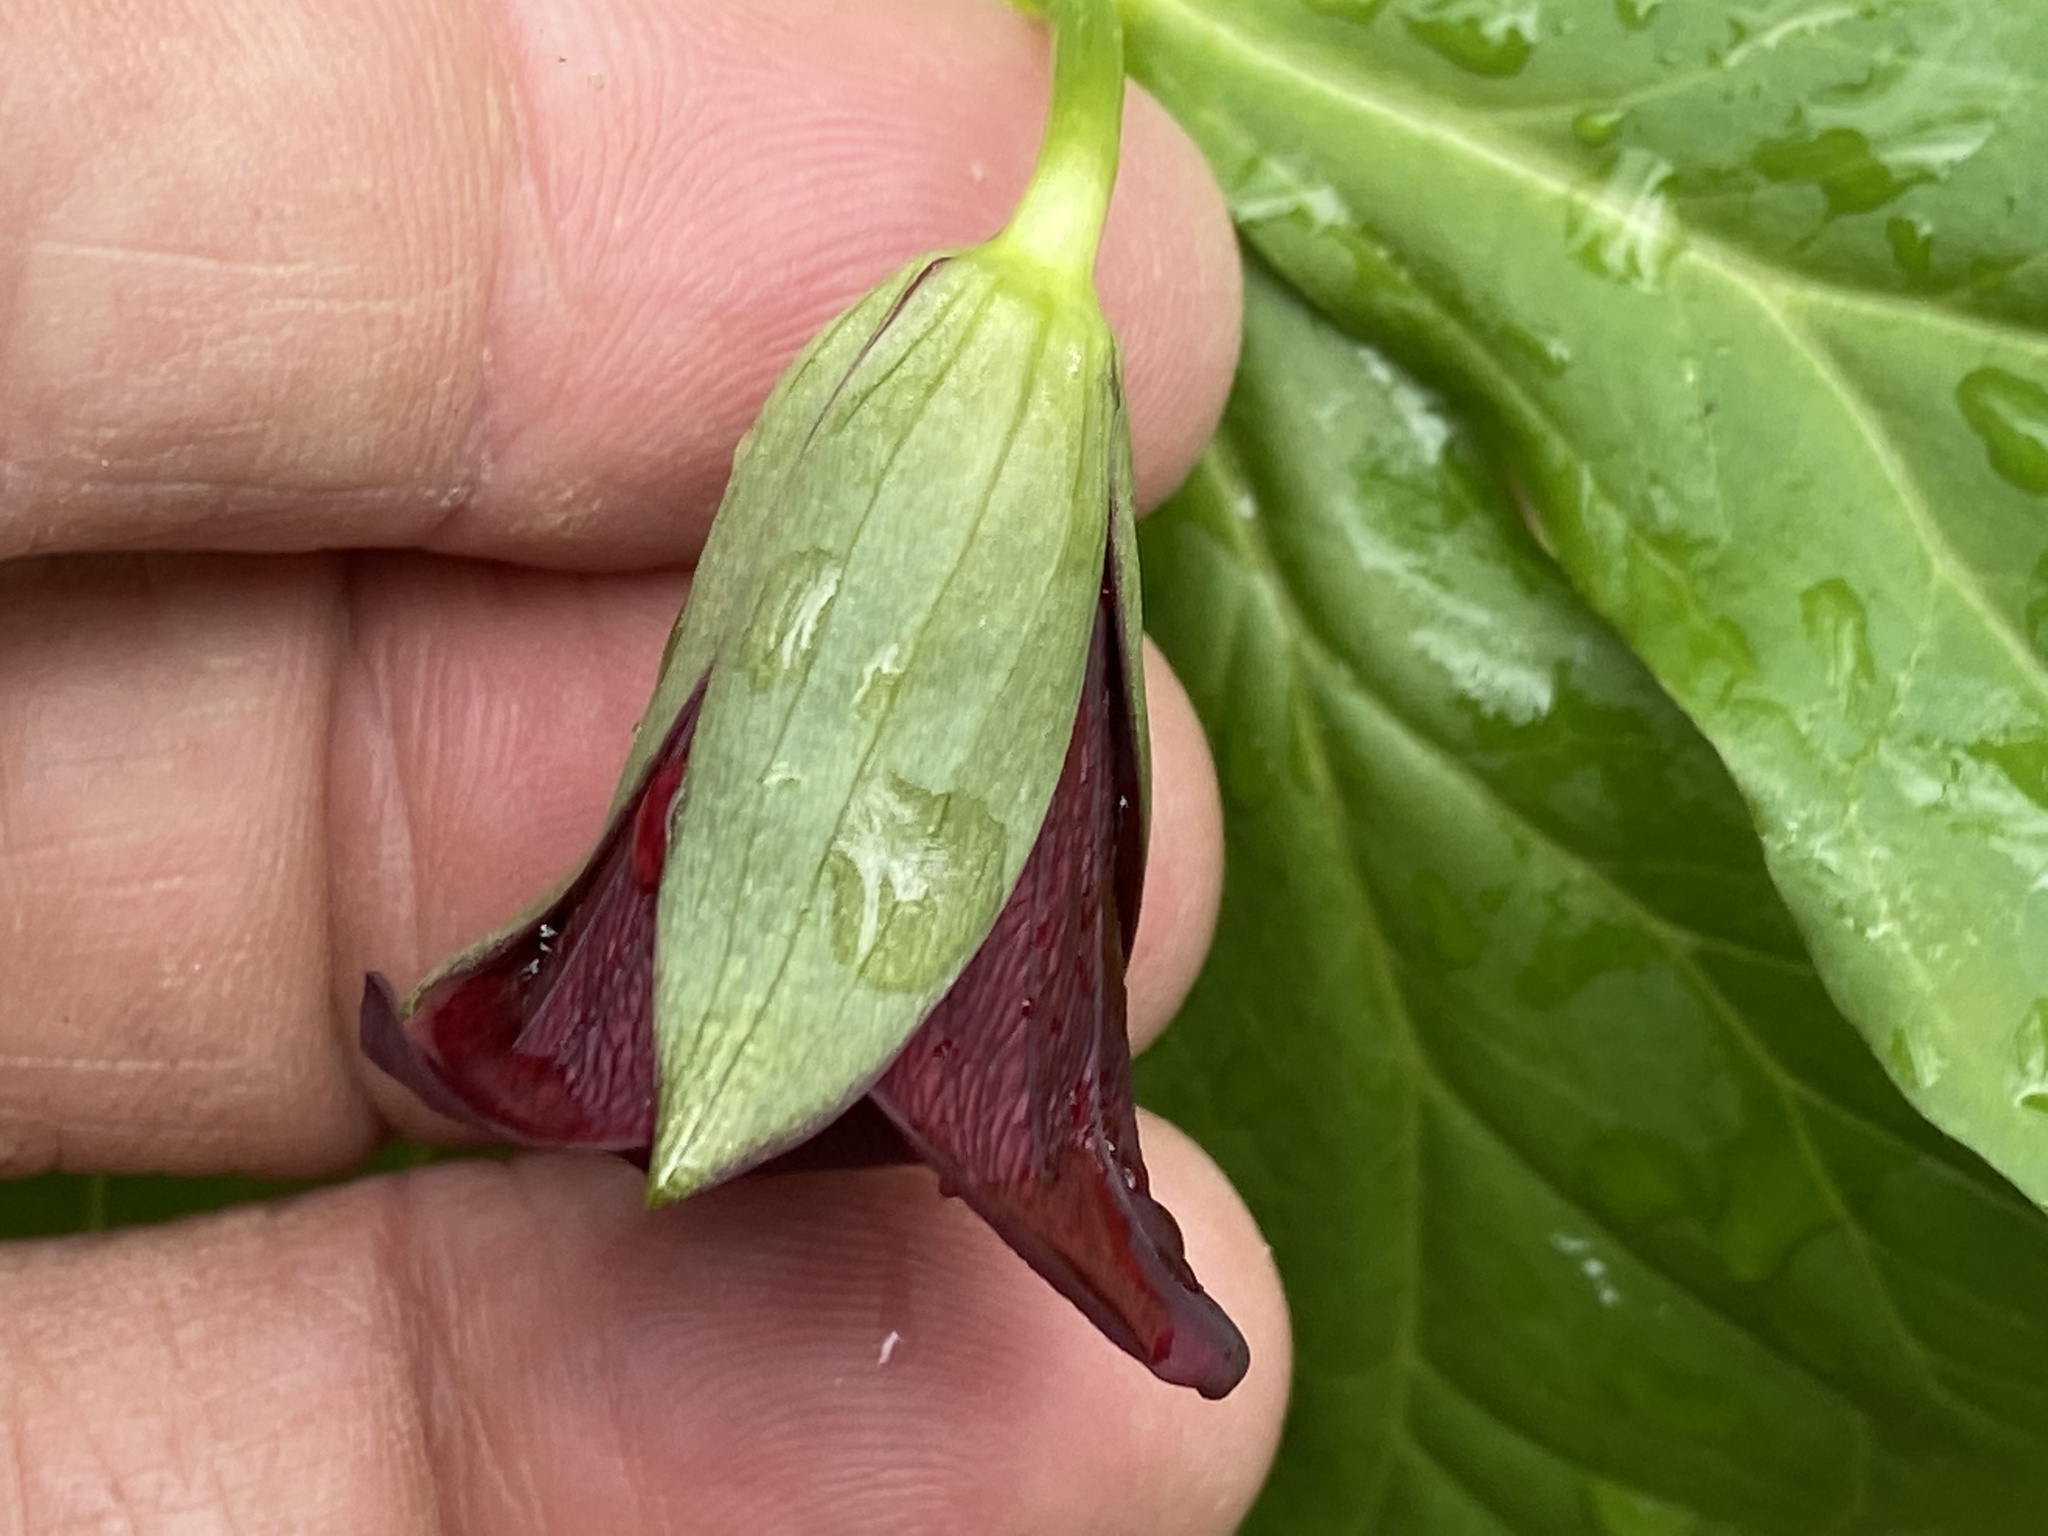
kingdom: Plantae
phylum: Tracheophyta
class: Liliopsida
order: Liliales
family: Melanthiaceae
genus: Trillium
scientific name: Trillium sulcatum
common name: Barksdale trillium
